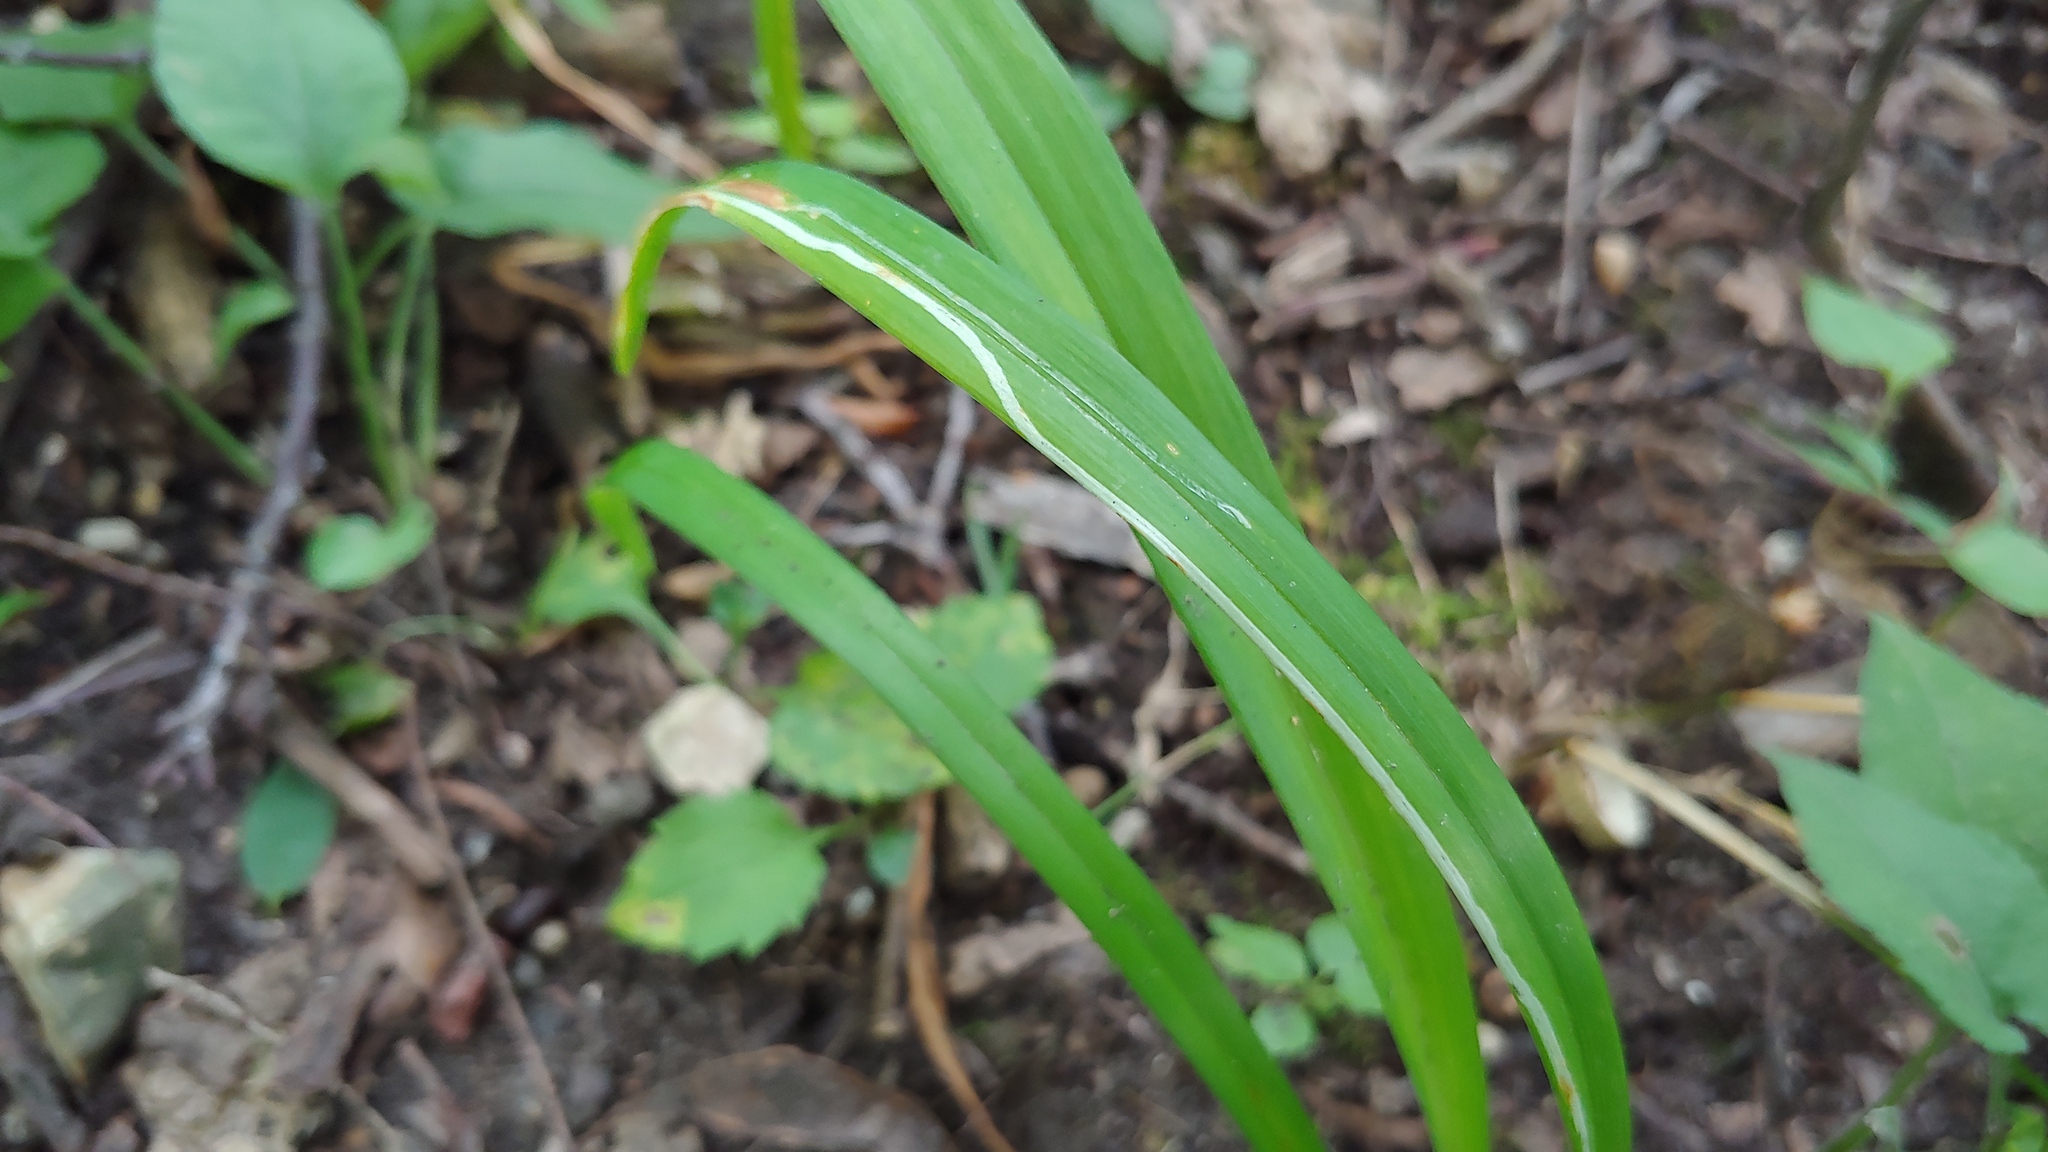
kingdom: Animalia
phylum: Arthropoda
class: Insecta
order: Diptera
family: Agromyzidae
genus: Ophiomyia
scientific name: Ophiomyia kwansonis
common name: Daylily leafminer
